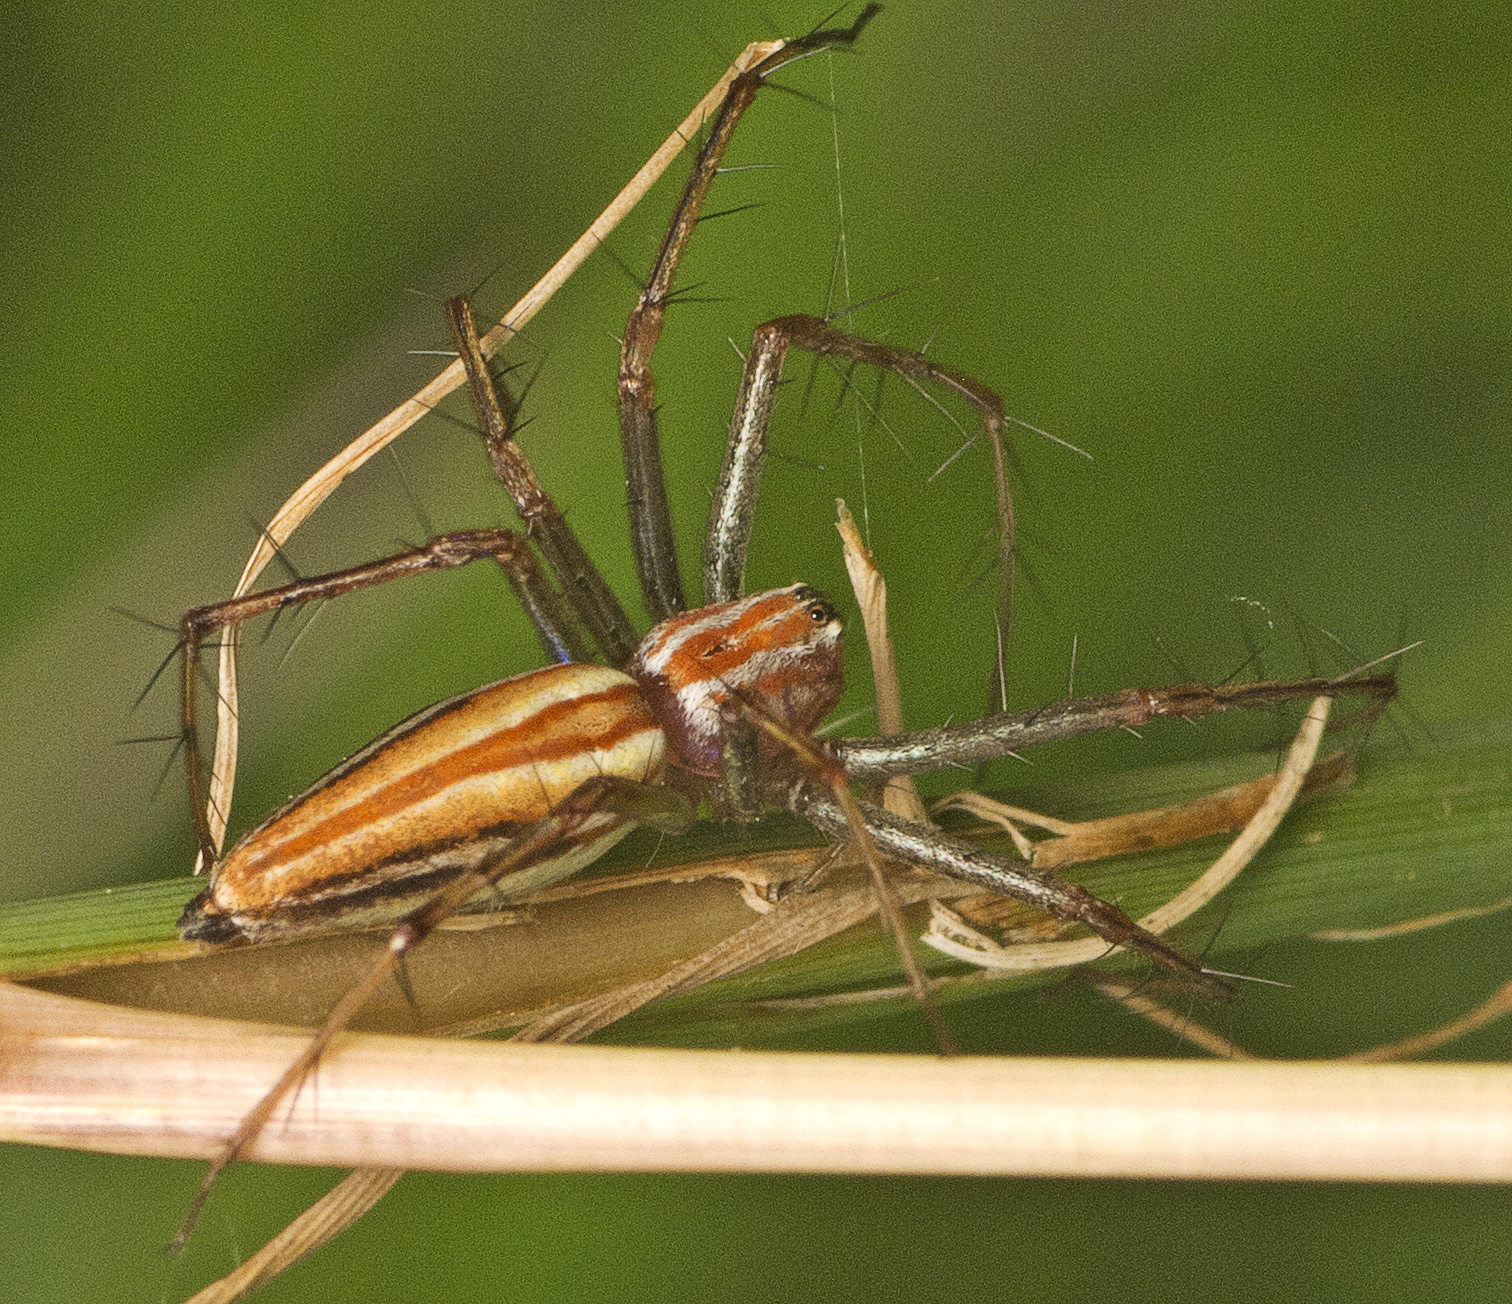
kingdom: Animalia
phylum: Arthropoda
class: Arachnida
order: Araneae
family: Oxyopidae
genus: Oxyopes
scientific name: Oxyopes macilentus
